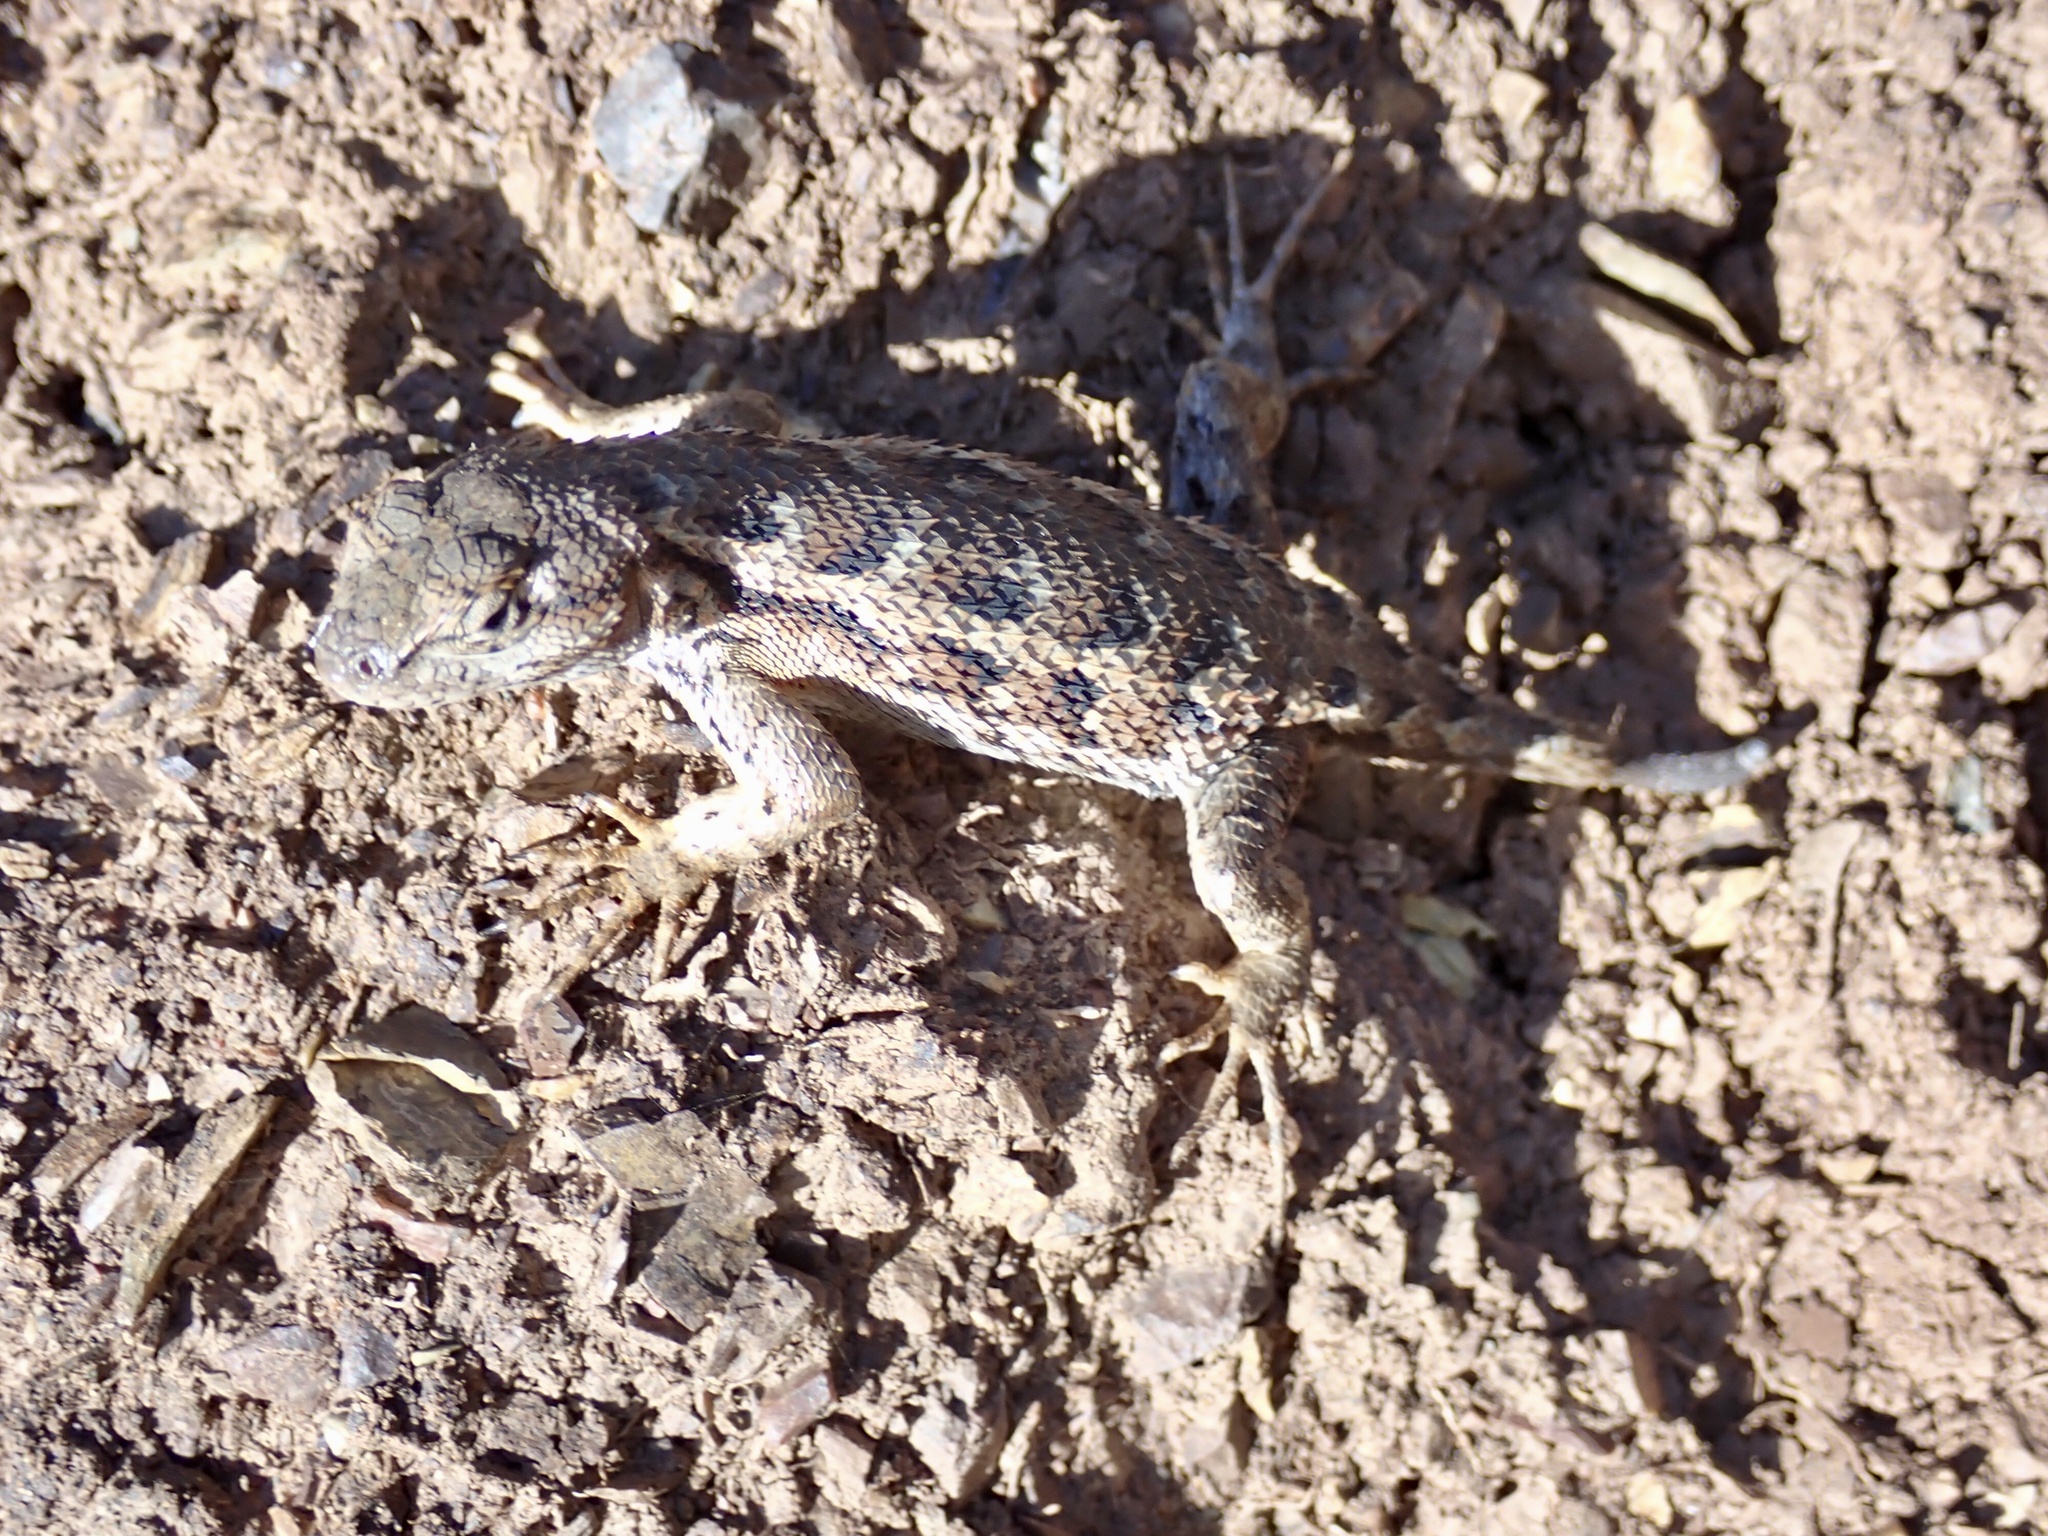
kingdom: Animalia
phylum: Chordata
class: Squamata
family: Phrynosomatidae
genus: Sceloporus
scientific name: Sceloporus occidentalis
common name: Western fence lizard
